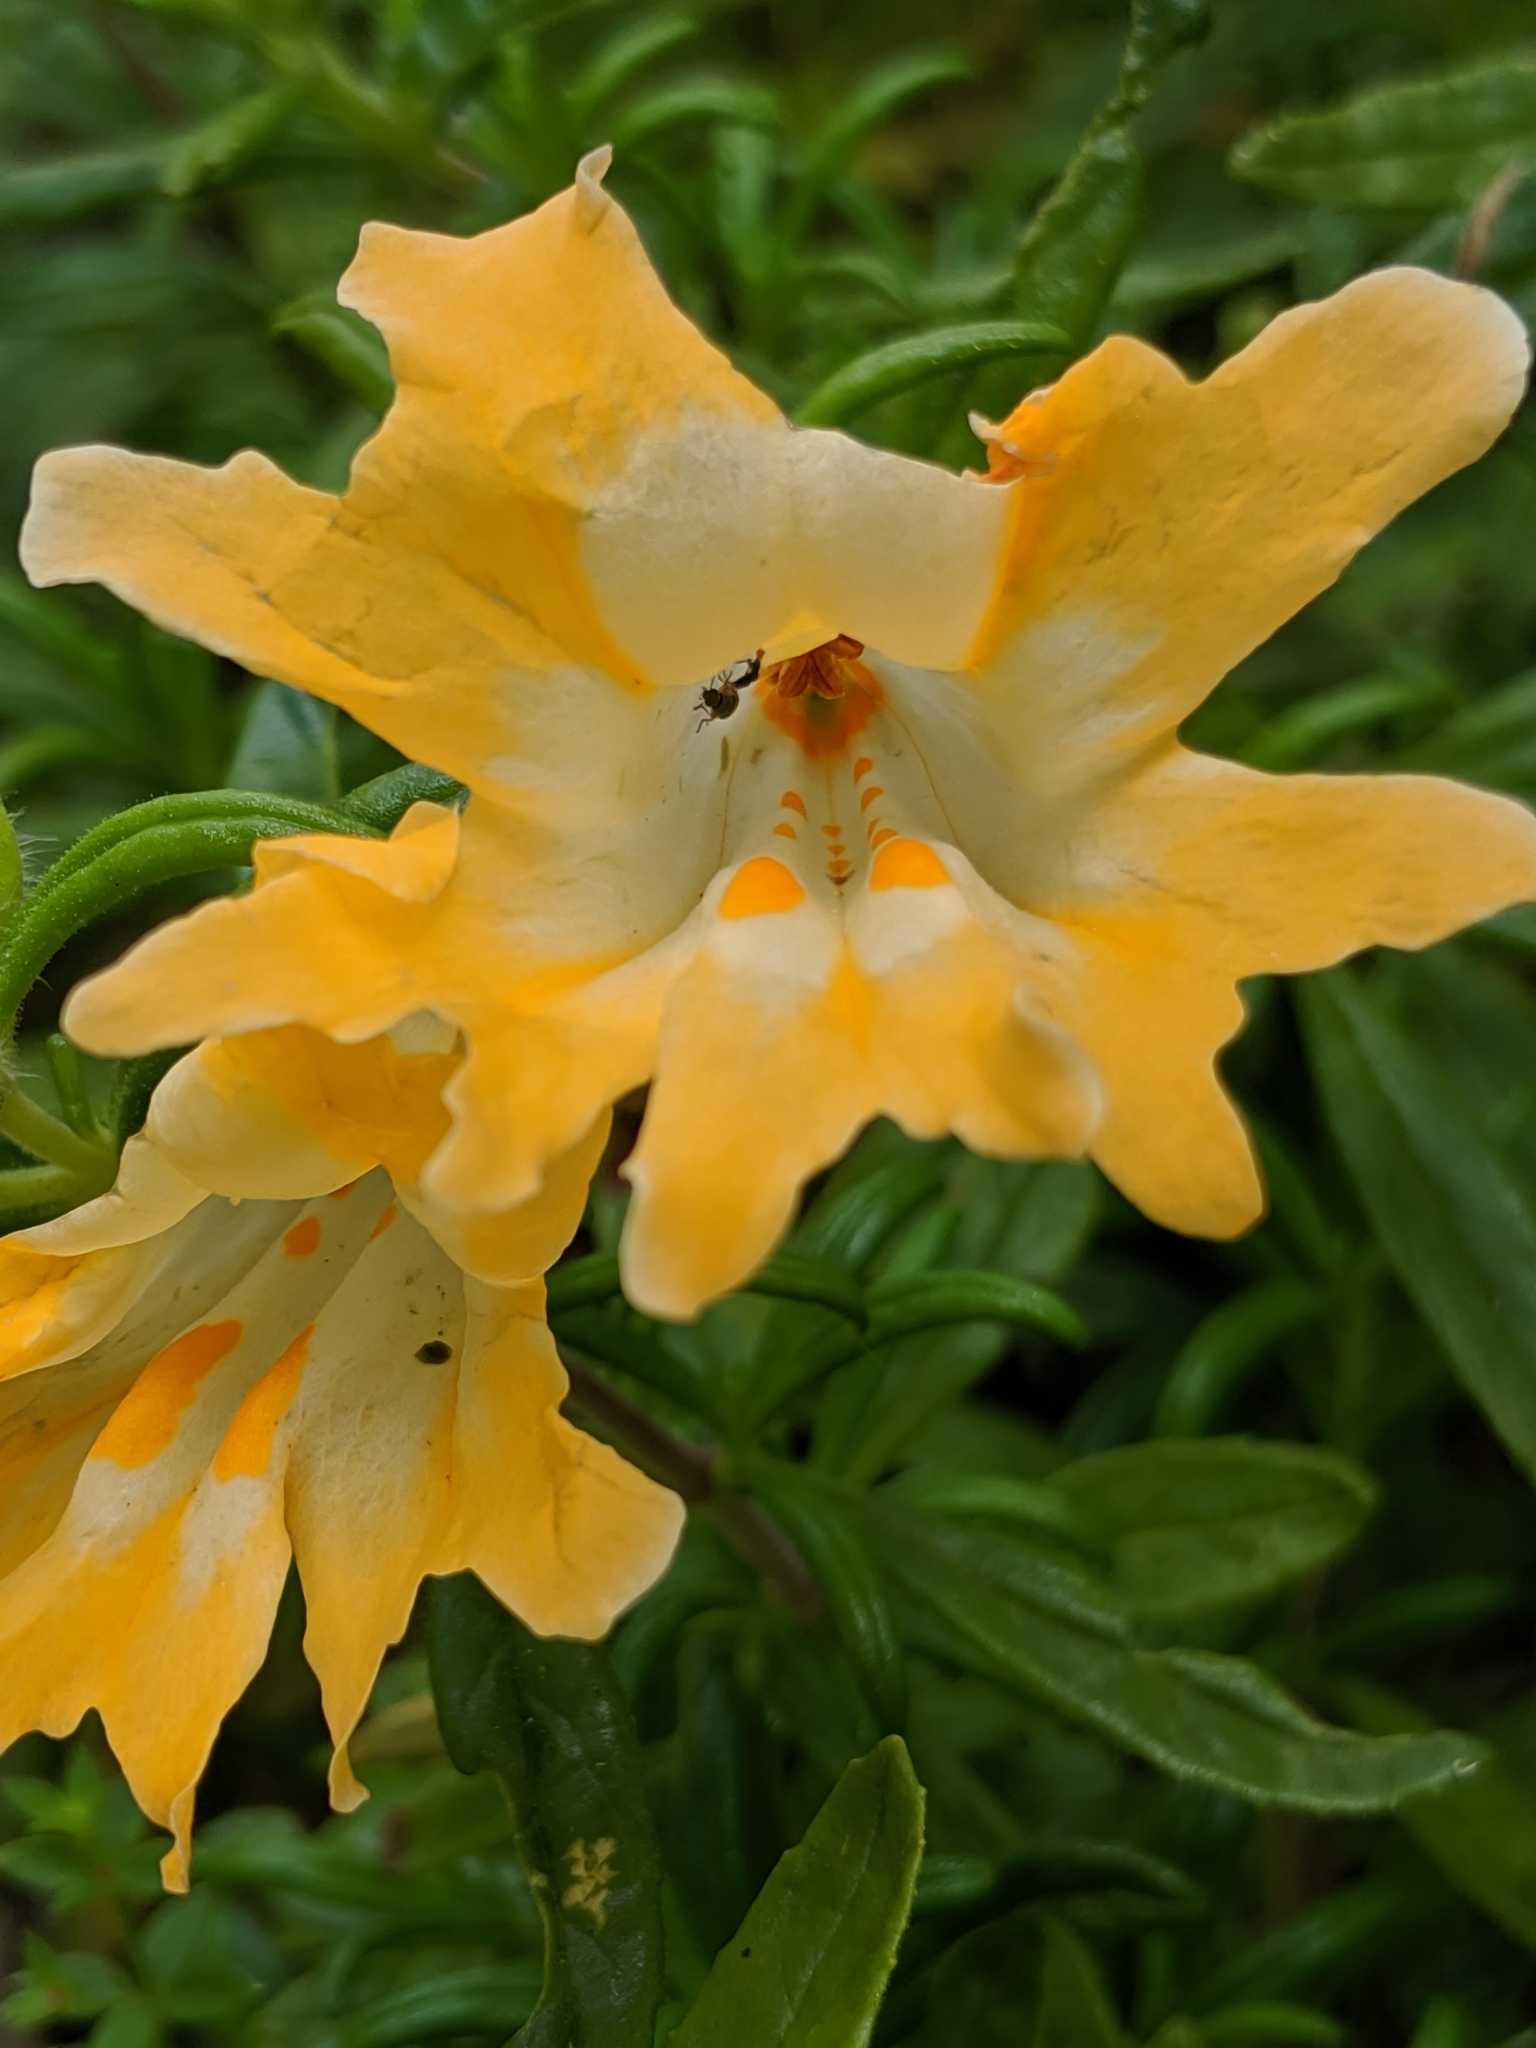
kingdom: Plantae
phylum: Tracheophyta
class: Magnoliopsida
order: Lamiales
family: Phrymaceae
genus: Diplacus
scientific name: Diplacus linearis
